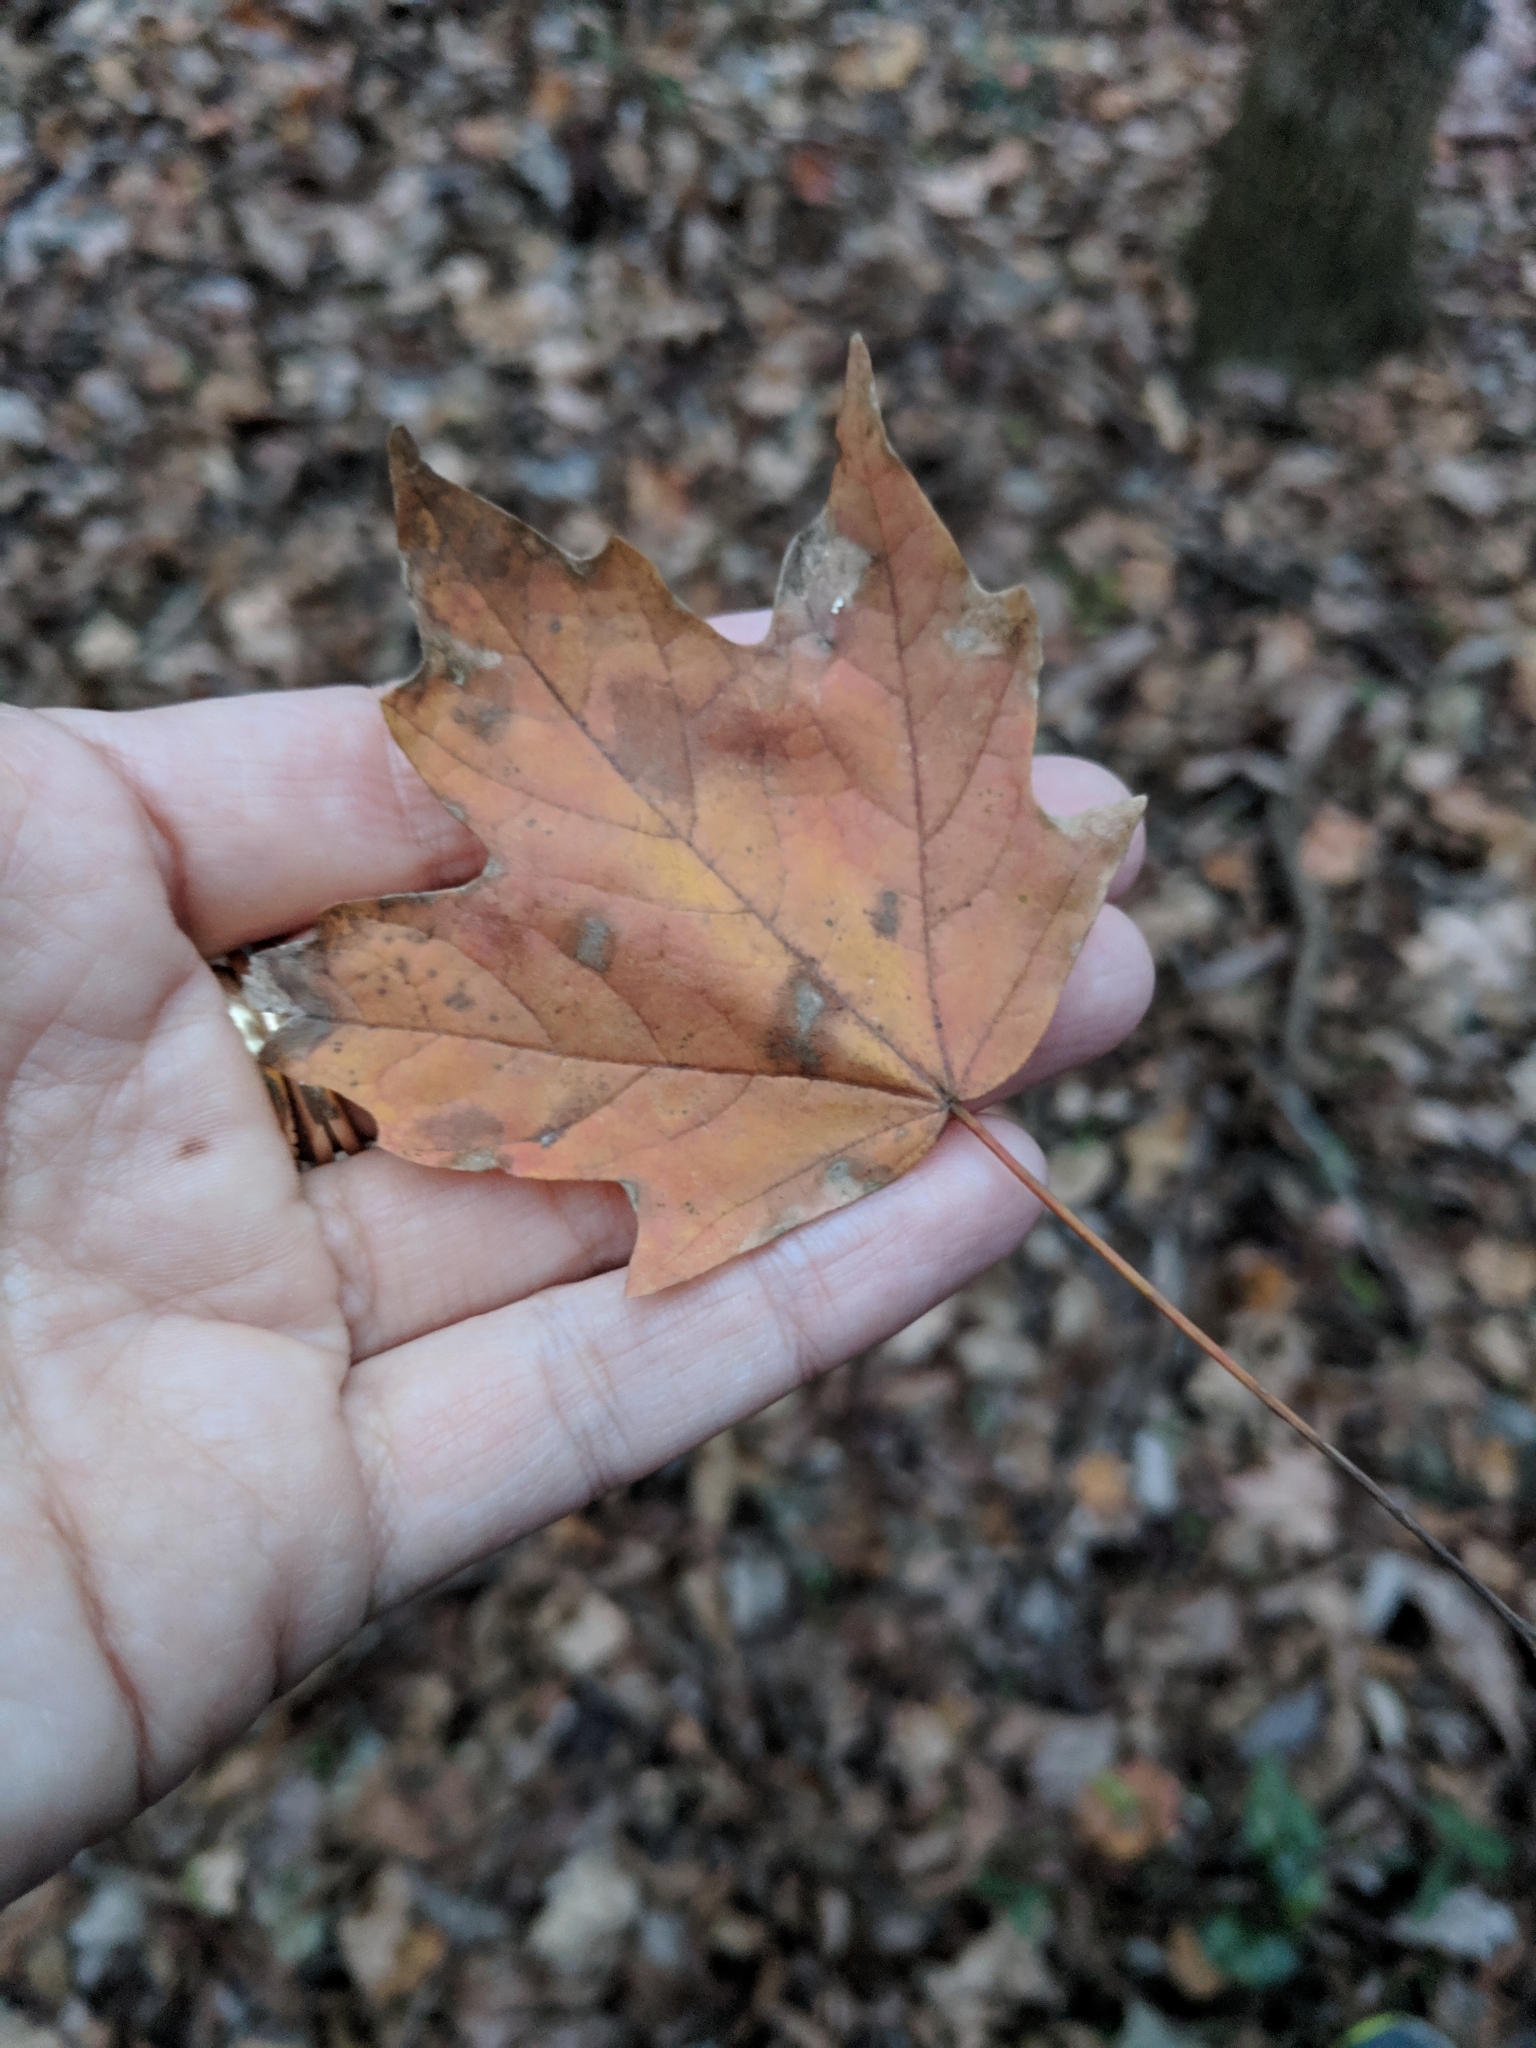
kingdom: Plantae
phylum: Tracheophyta
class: Magnoliopsida
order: Sapindales
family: Sapindaceae
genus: Acer
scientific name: Acer floridanum
